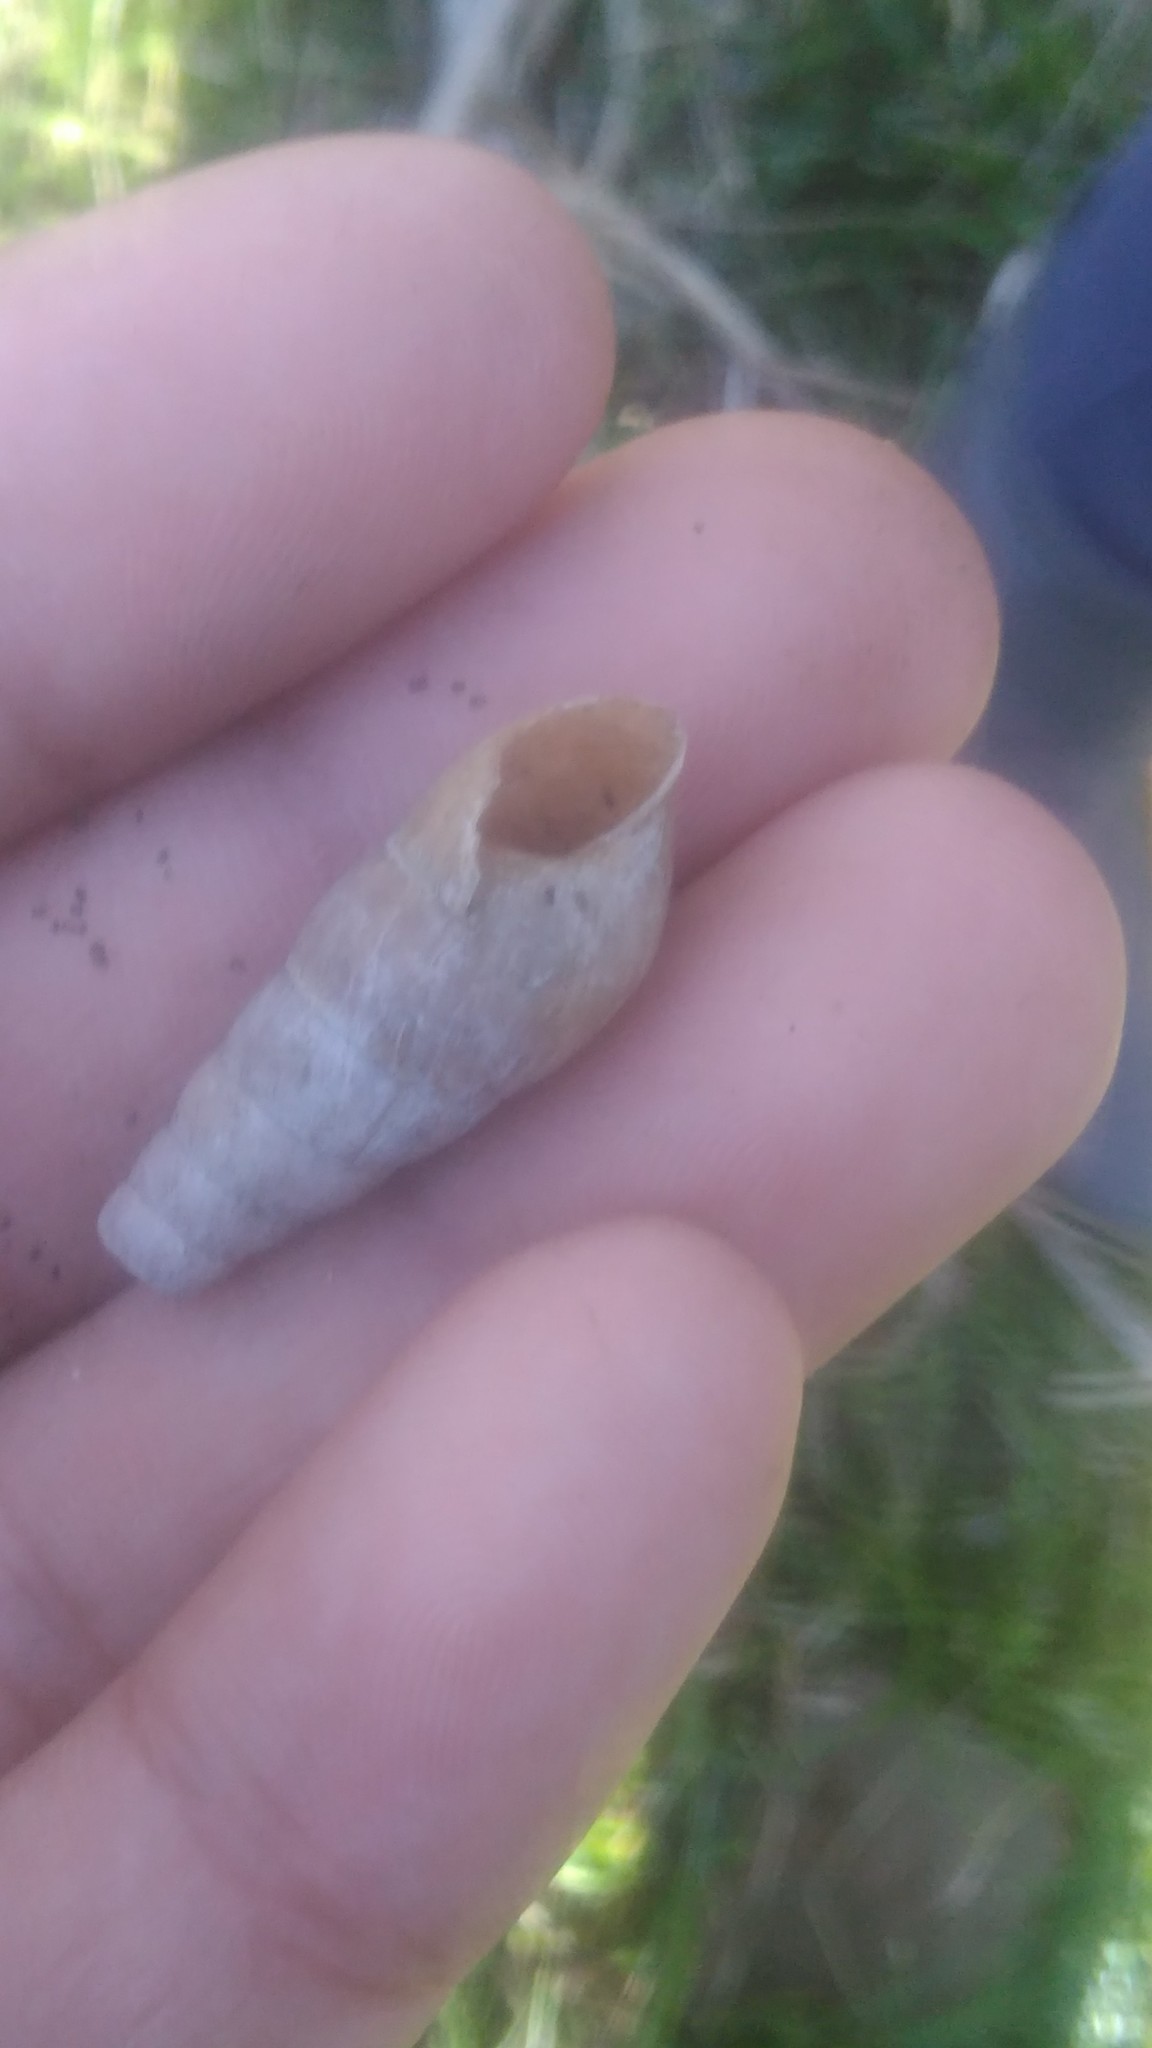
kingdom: Animalia
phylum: Mollusca
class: Gastropoda
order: Stylommatophora
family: Achatinidae
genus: Rumina
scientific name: Rumina decollata
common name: Decollate snail
